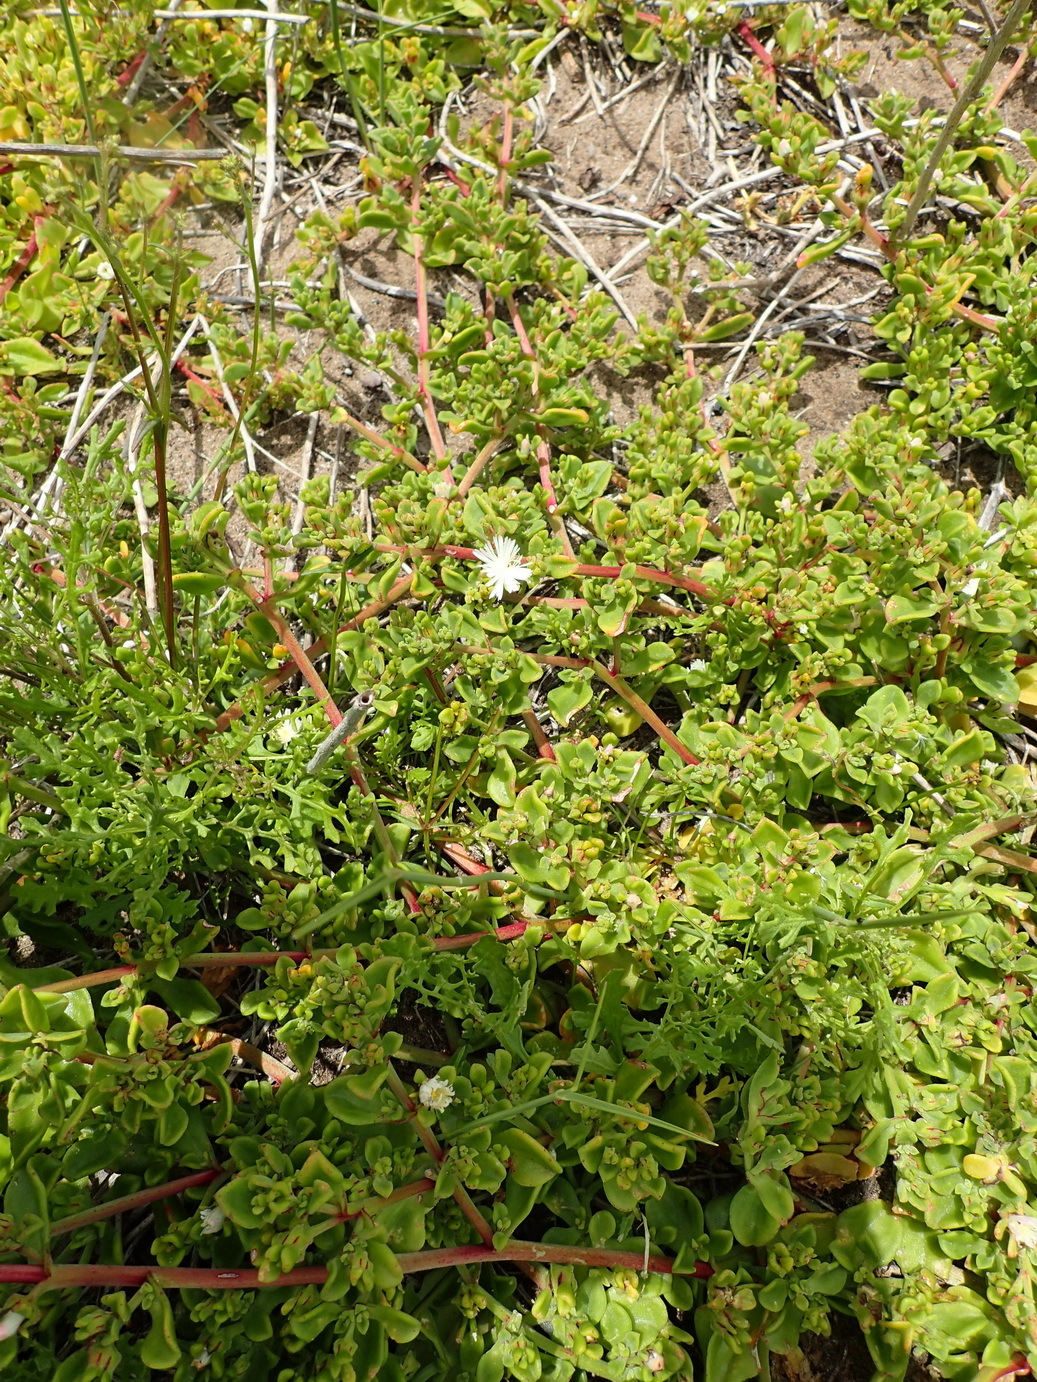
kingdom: Plantae
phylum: Tracheophyta
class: Magnoliopsida
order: Caryophyllales
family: Aizoaceae
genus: Mesembryanthemum
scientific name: Mesembryanthemum aitonis
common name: Angled iceplant
